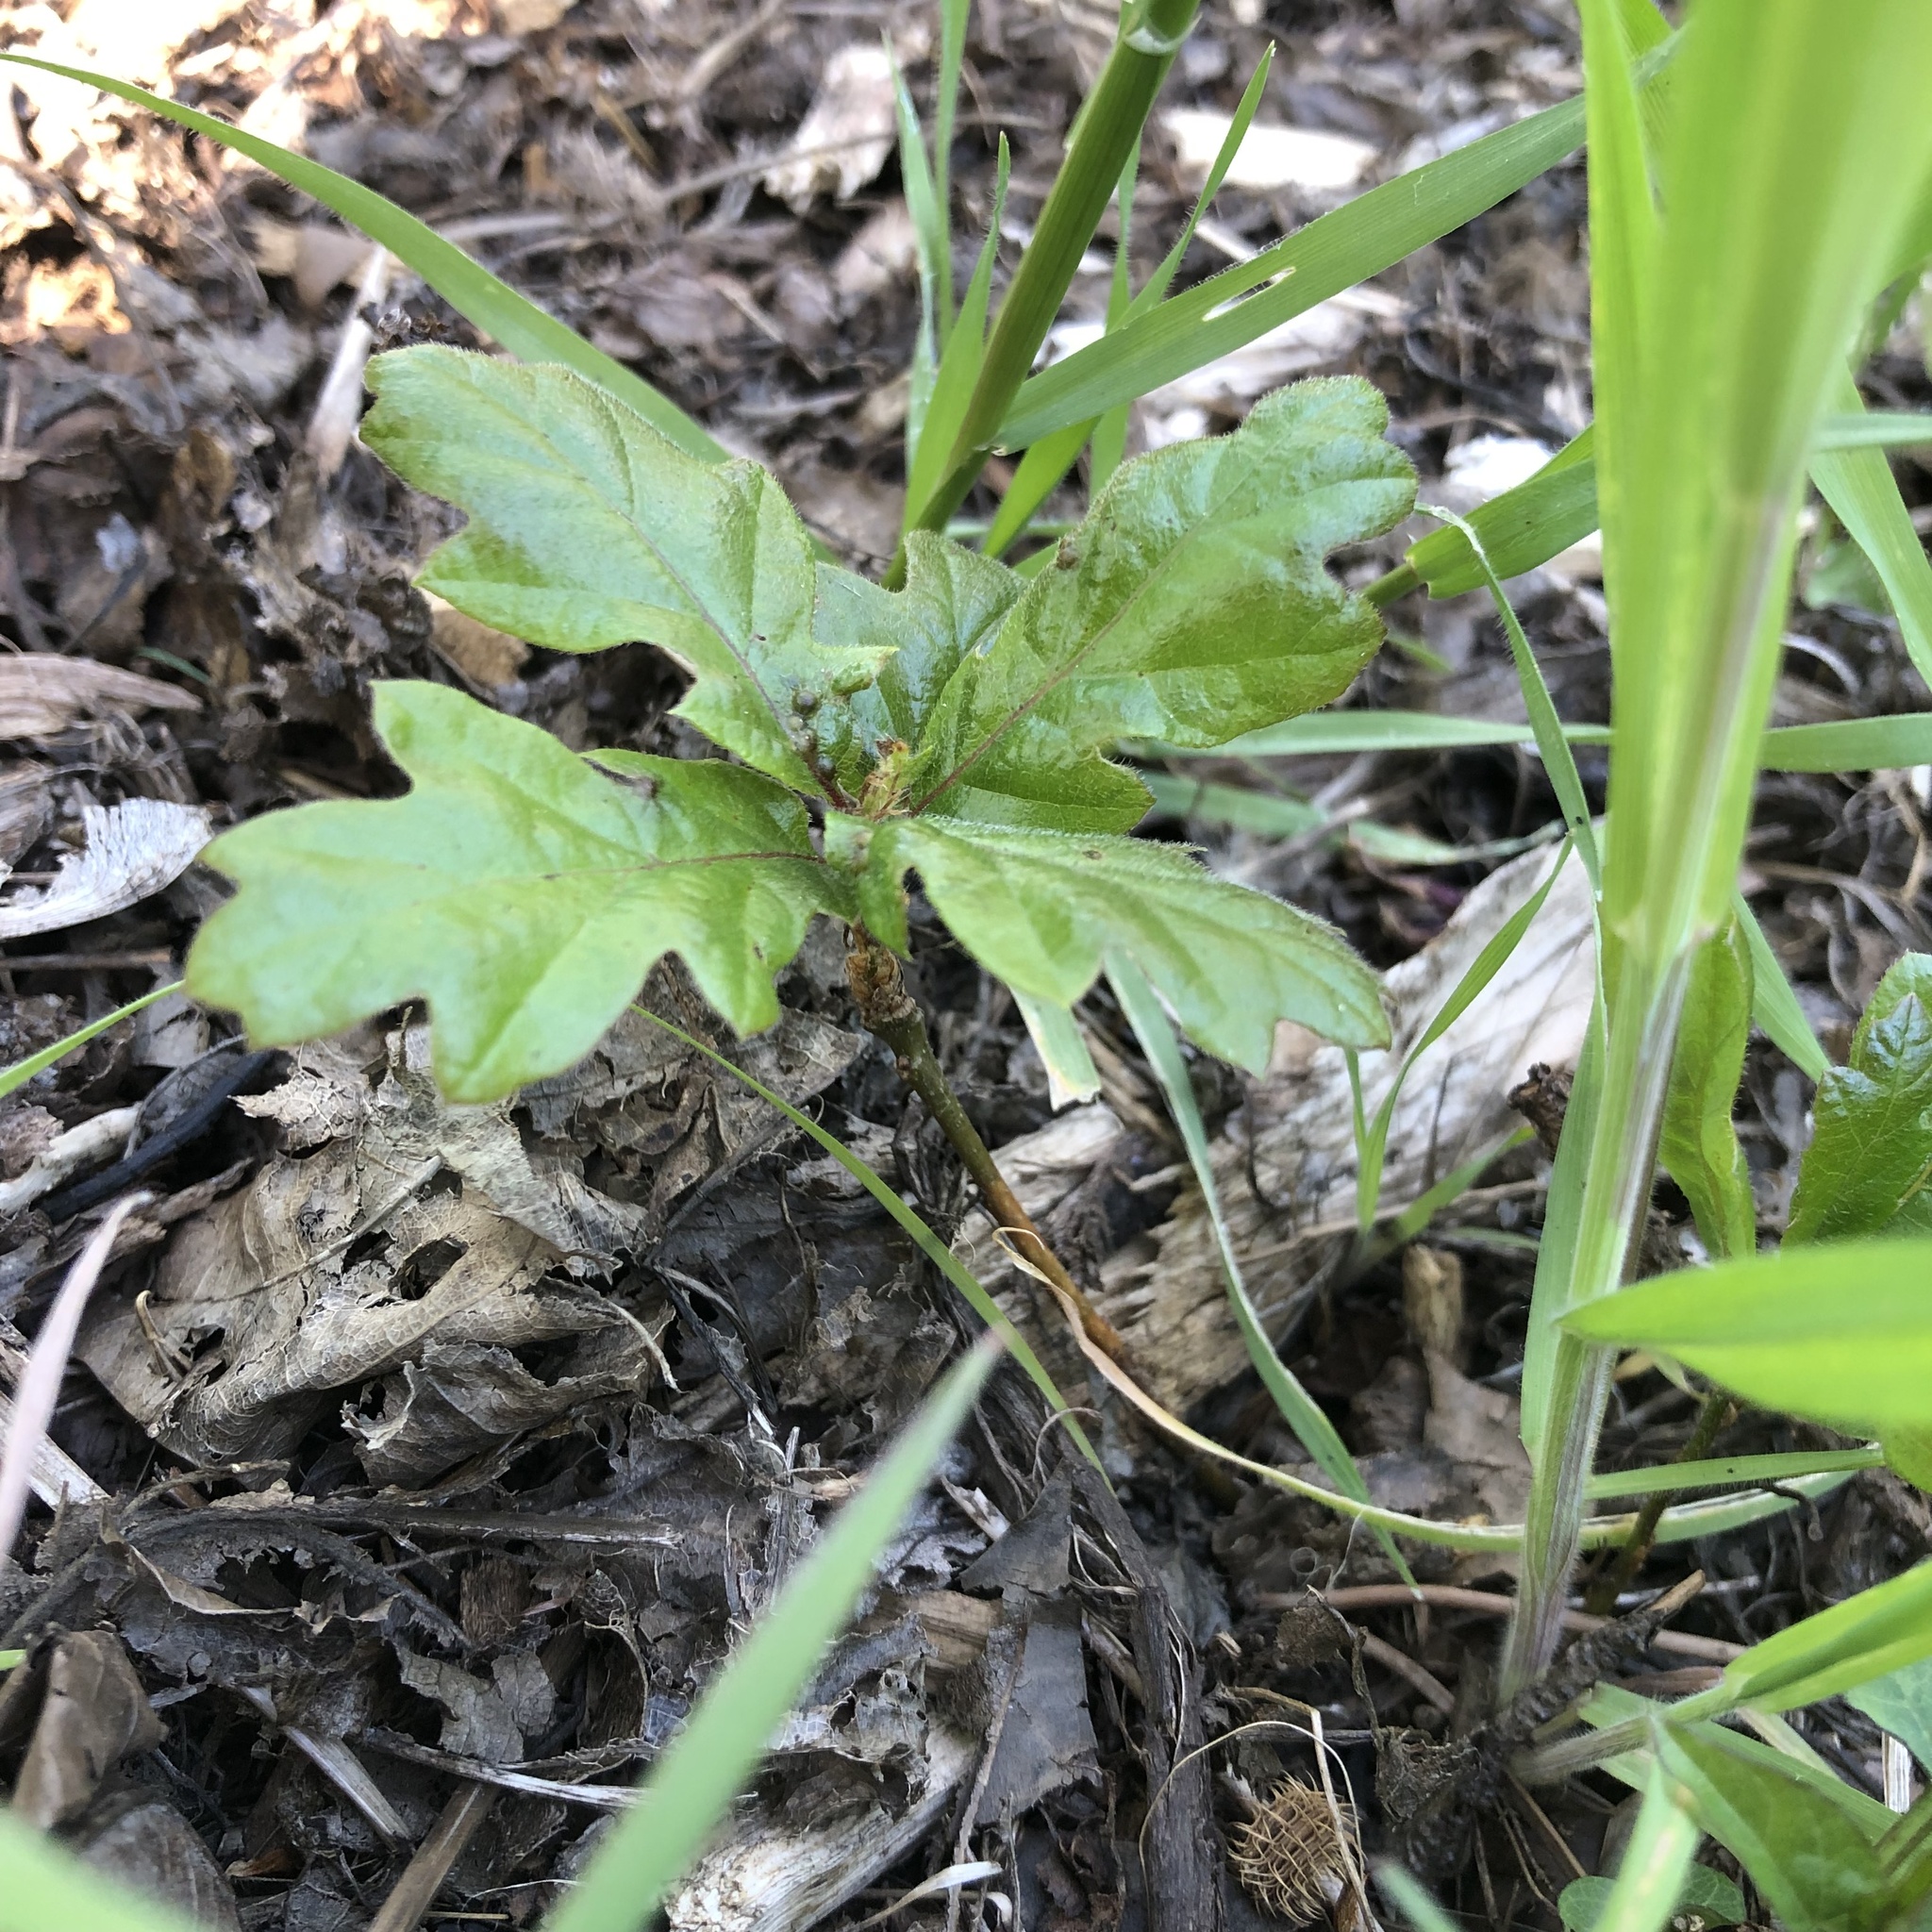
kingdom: Plantae
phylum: Tracheophyta
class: Magnoliopsida
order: Fagales
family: Fagaceae
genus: Quercus
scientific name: Quercus garryana
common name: Garry oak
